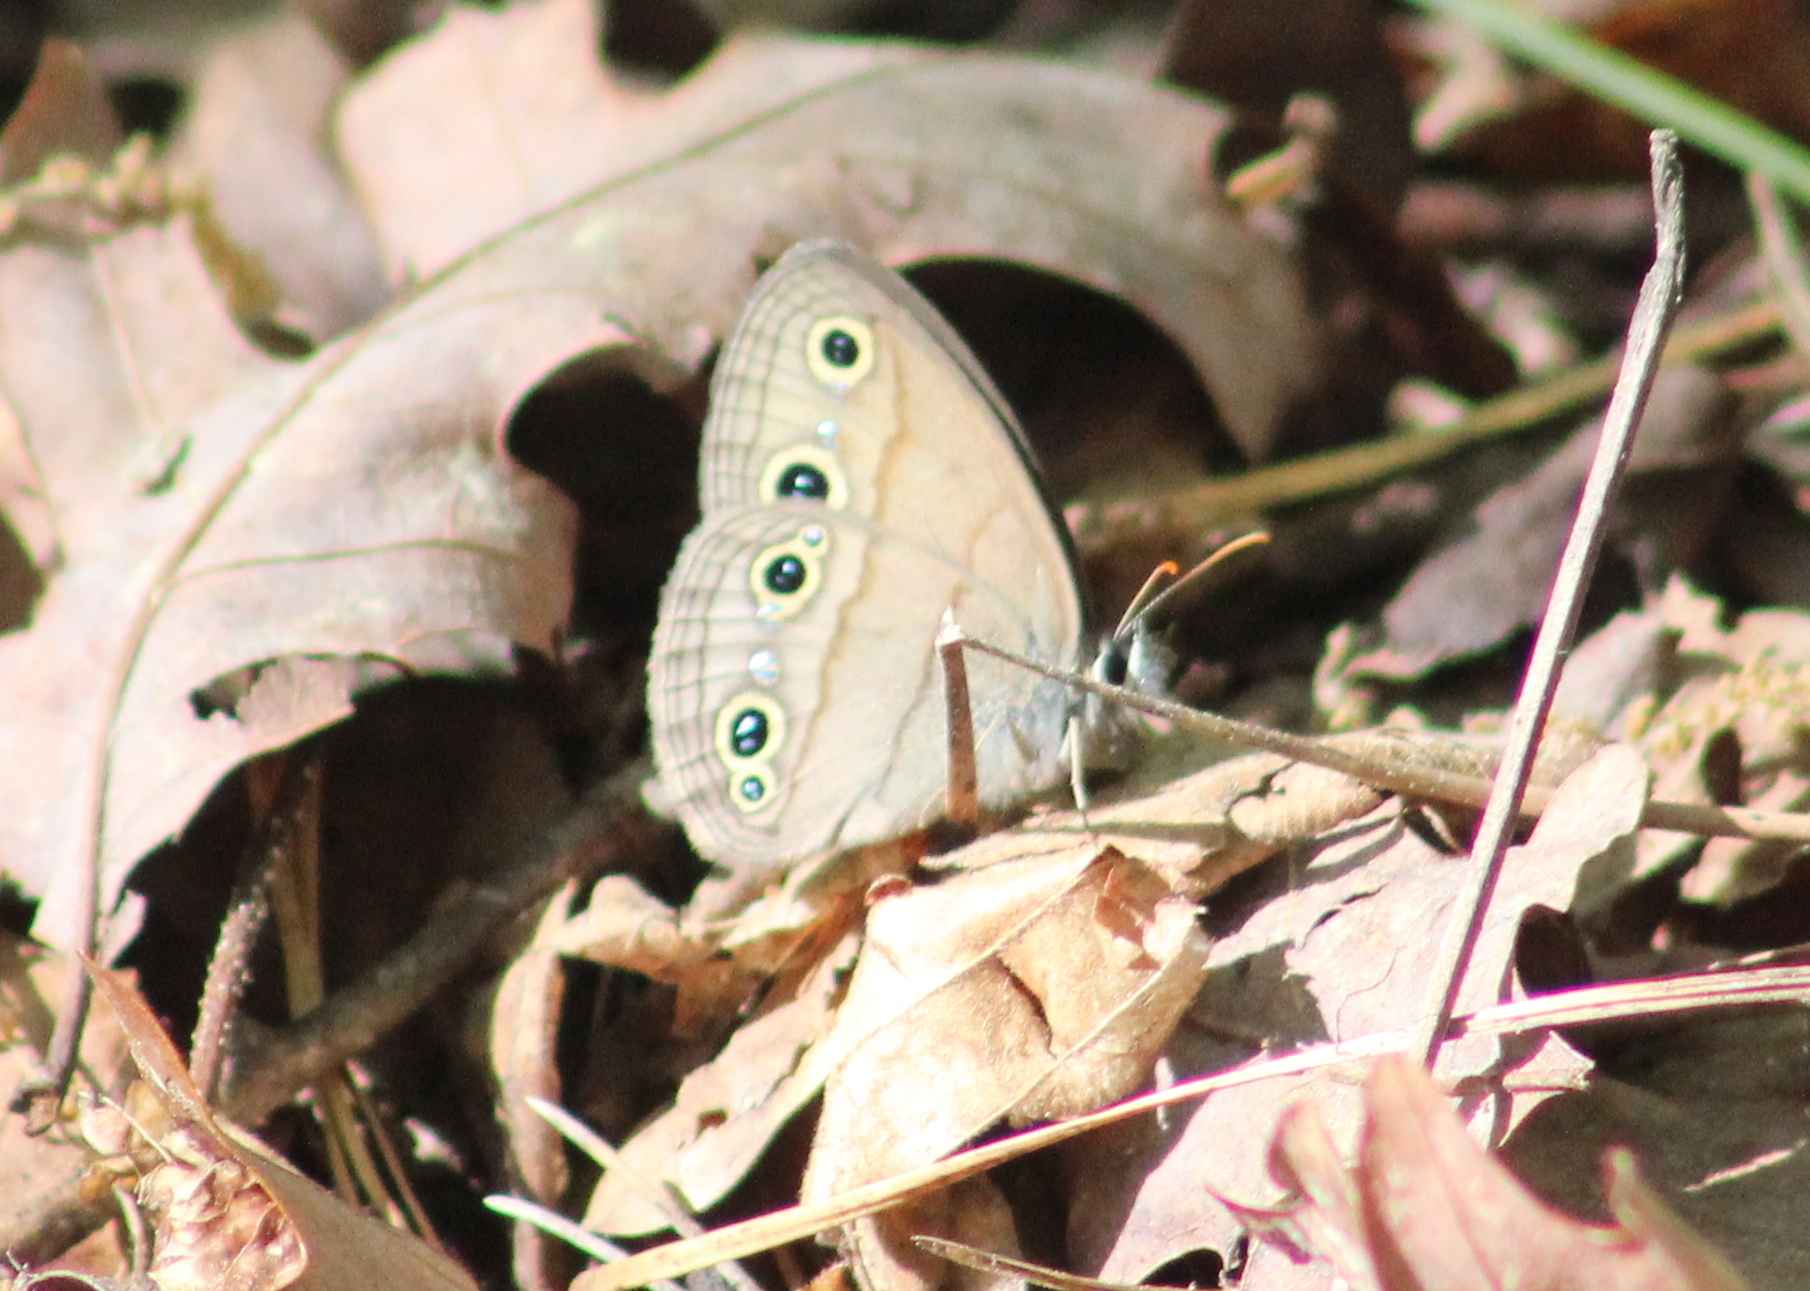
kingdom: Animalia
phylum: Arthropoda
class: Insecta
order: Lepidoptera
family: Nymphalidae
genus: Euptychia
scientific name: Euptychia cymela
